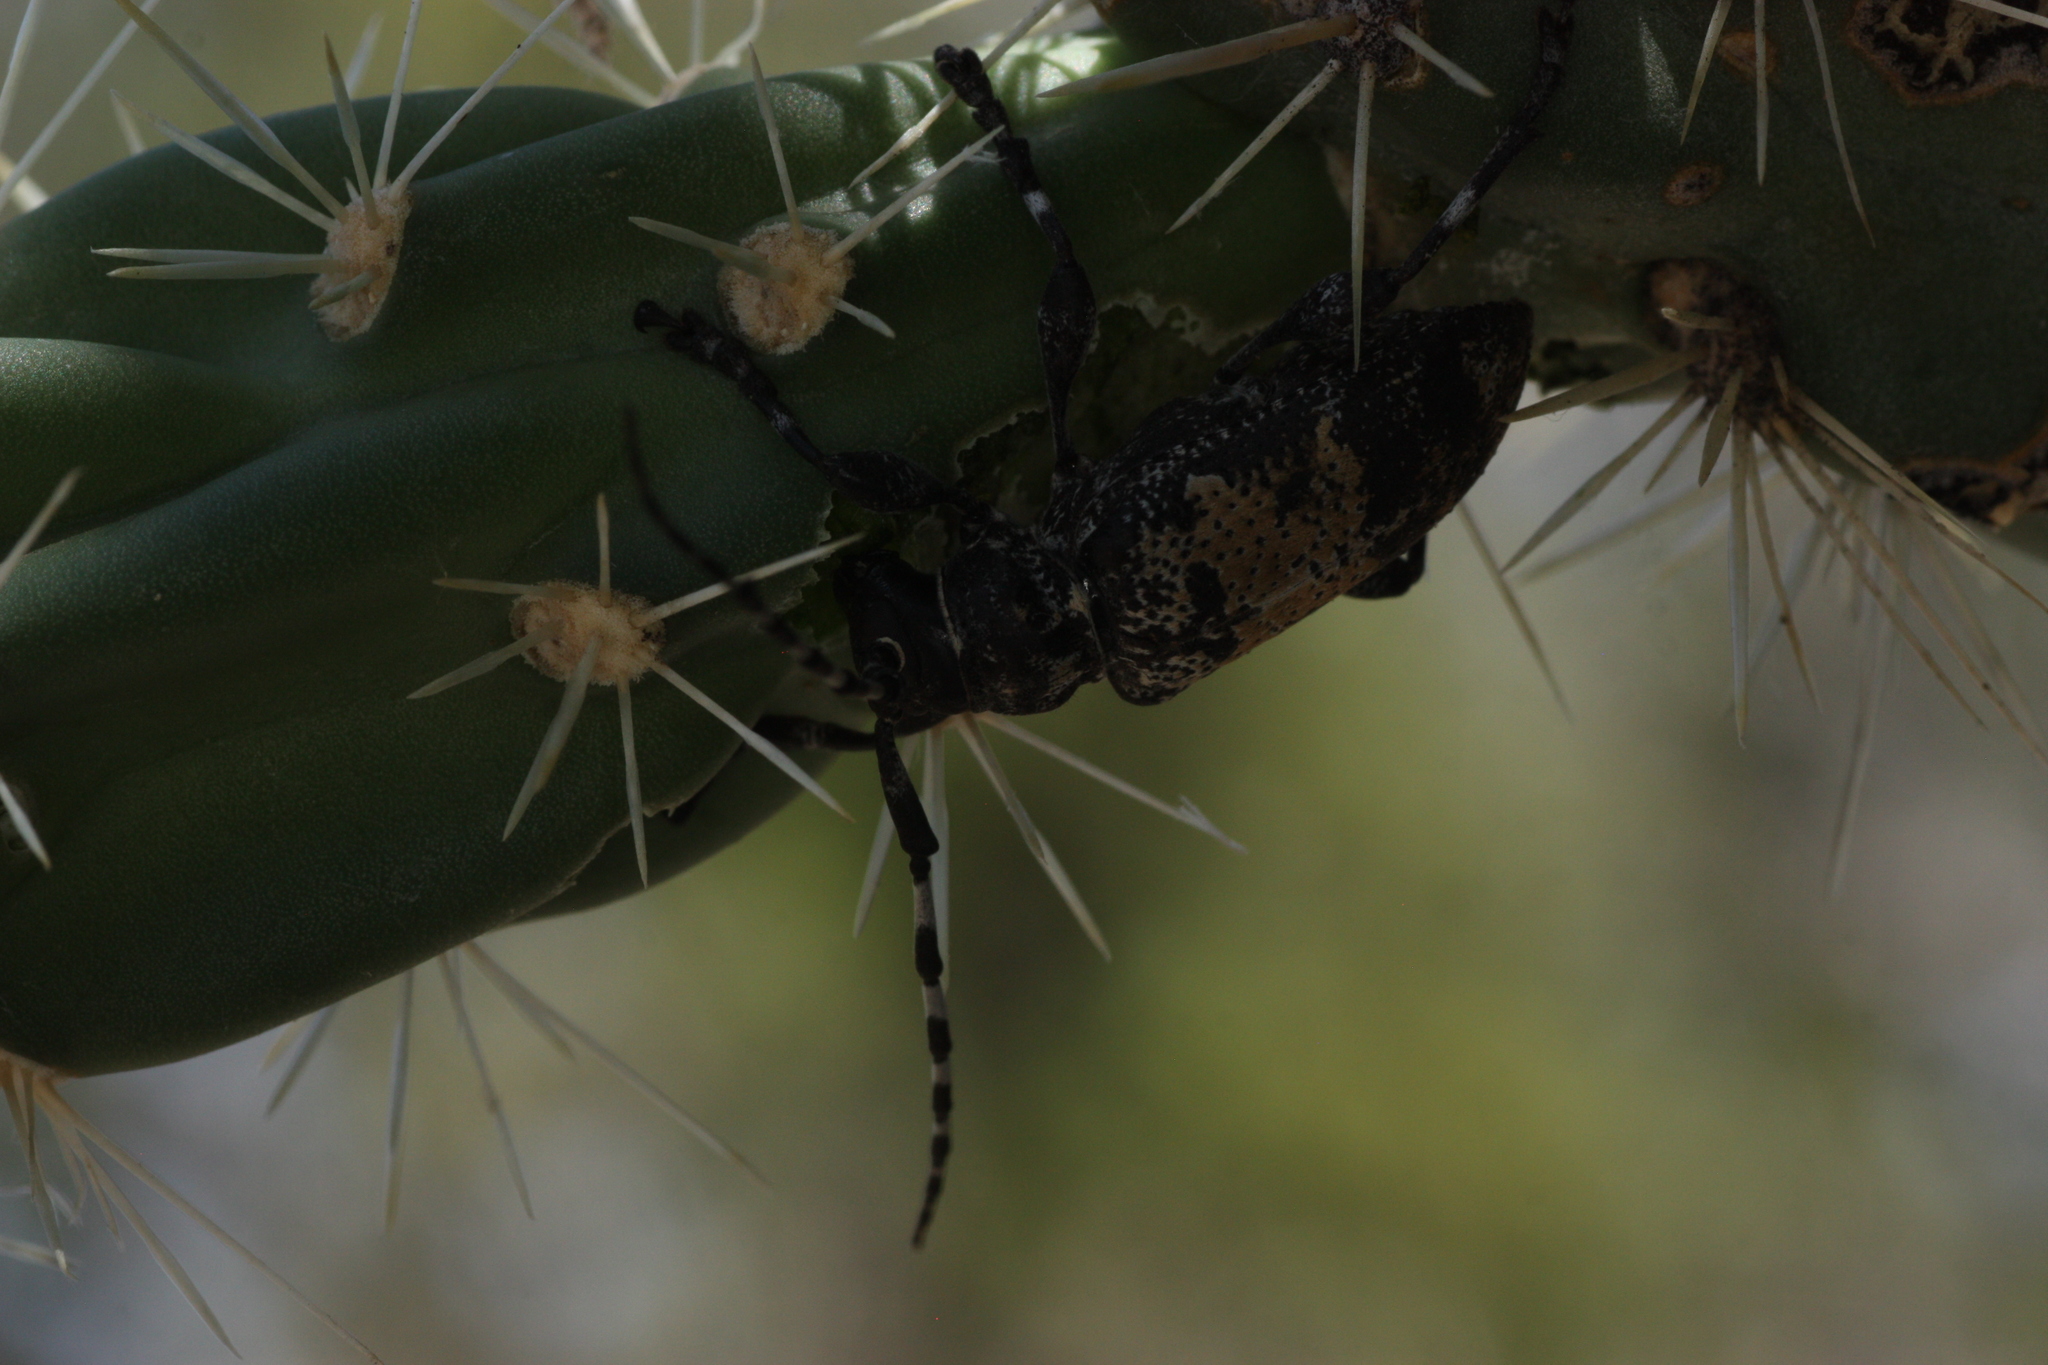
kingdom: Animalia
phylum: Arthropoda
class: Insecta
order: Coleoptera
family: Cerambycidae
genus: Coenopoeus
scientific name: Coenopoeus palmeri
